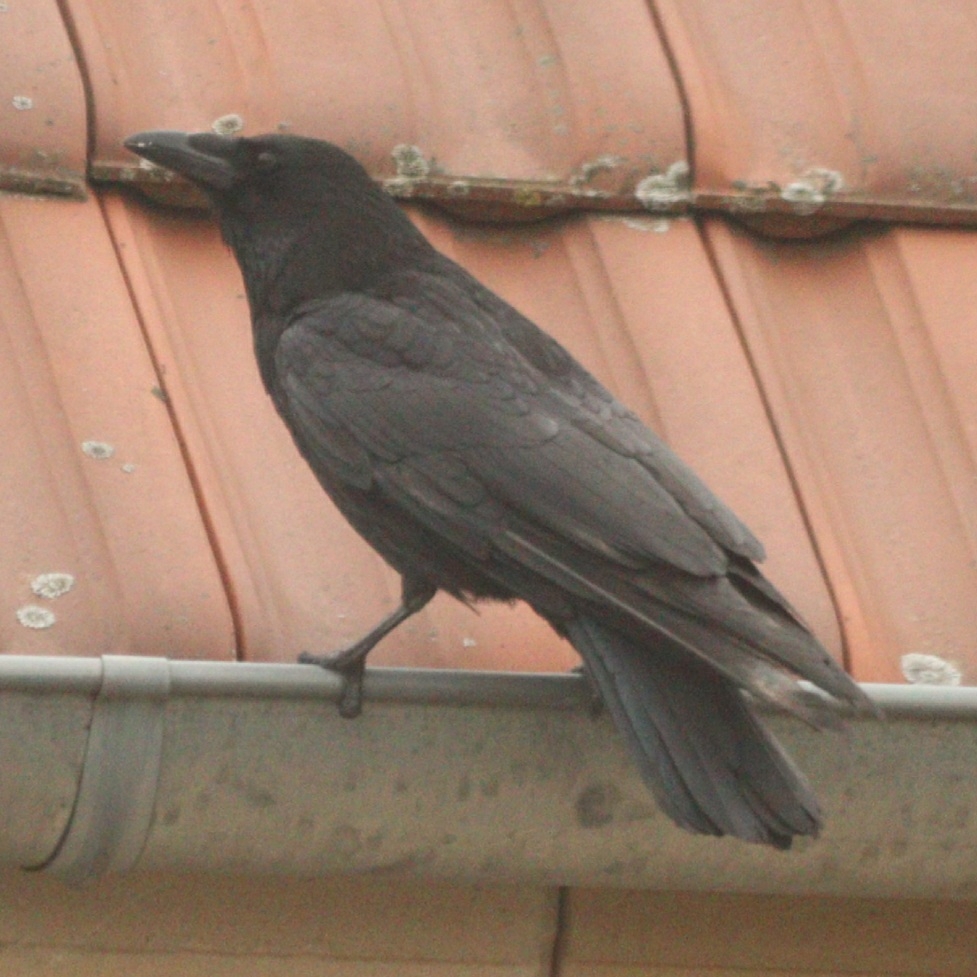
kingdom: Animalia
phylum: Chordata
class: Aves
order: Passeriformes
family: Corvidae
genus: Corvus
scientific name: Corvus corone
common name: Carrion crow
